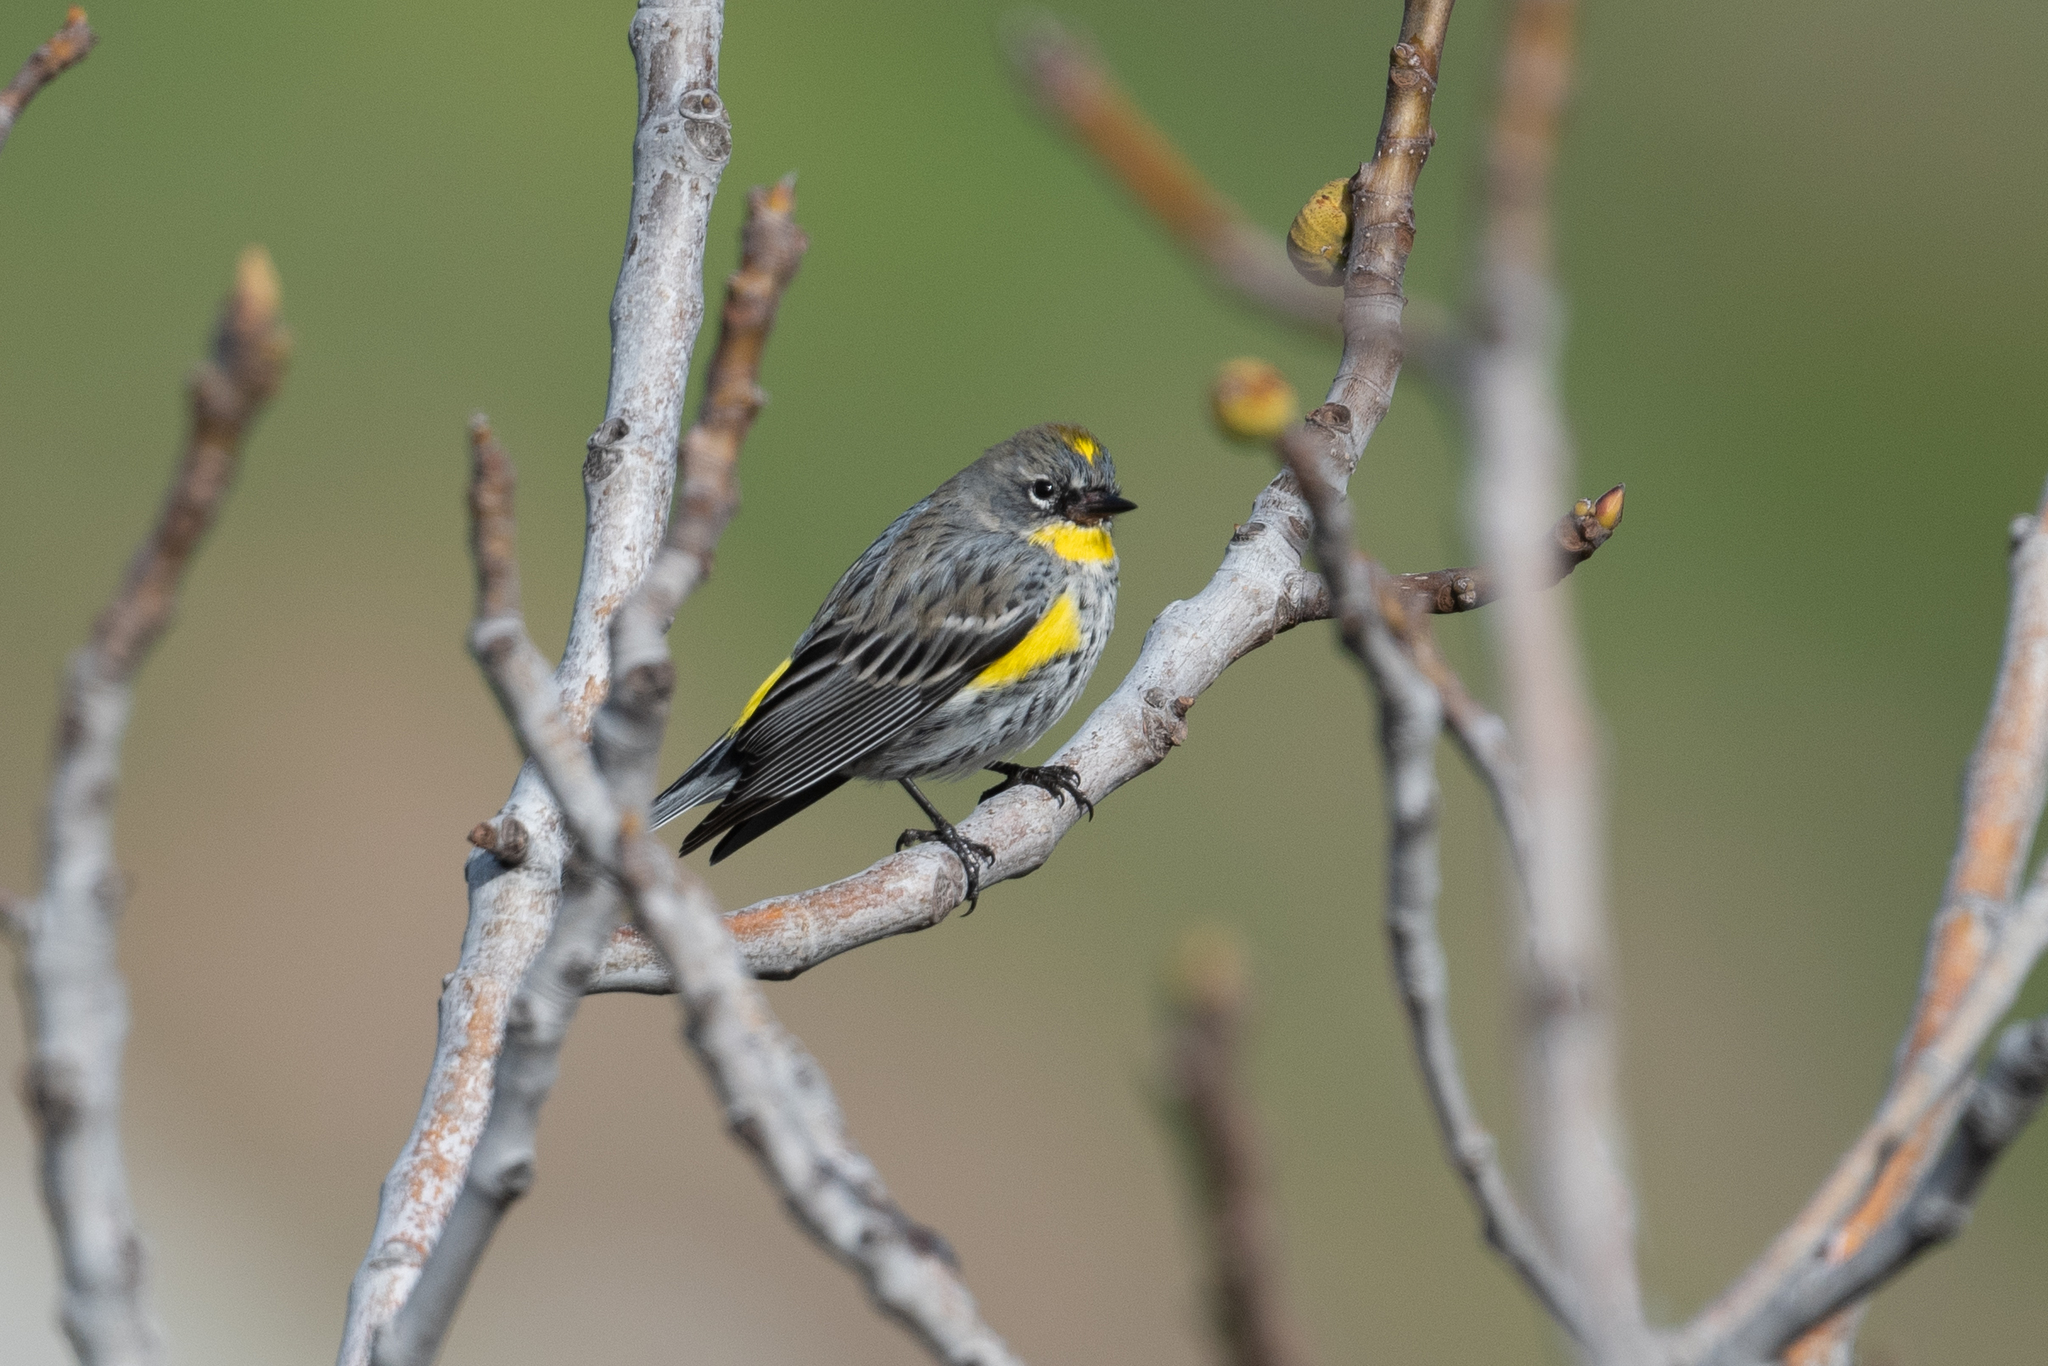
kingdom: Animalia
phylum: Chordata
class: Aves
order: Passeriformes
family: Parulidae
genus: Setophaga
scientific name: Setophaga coronata
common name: Myrtle warbler
